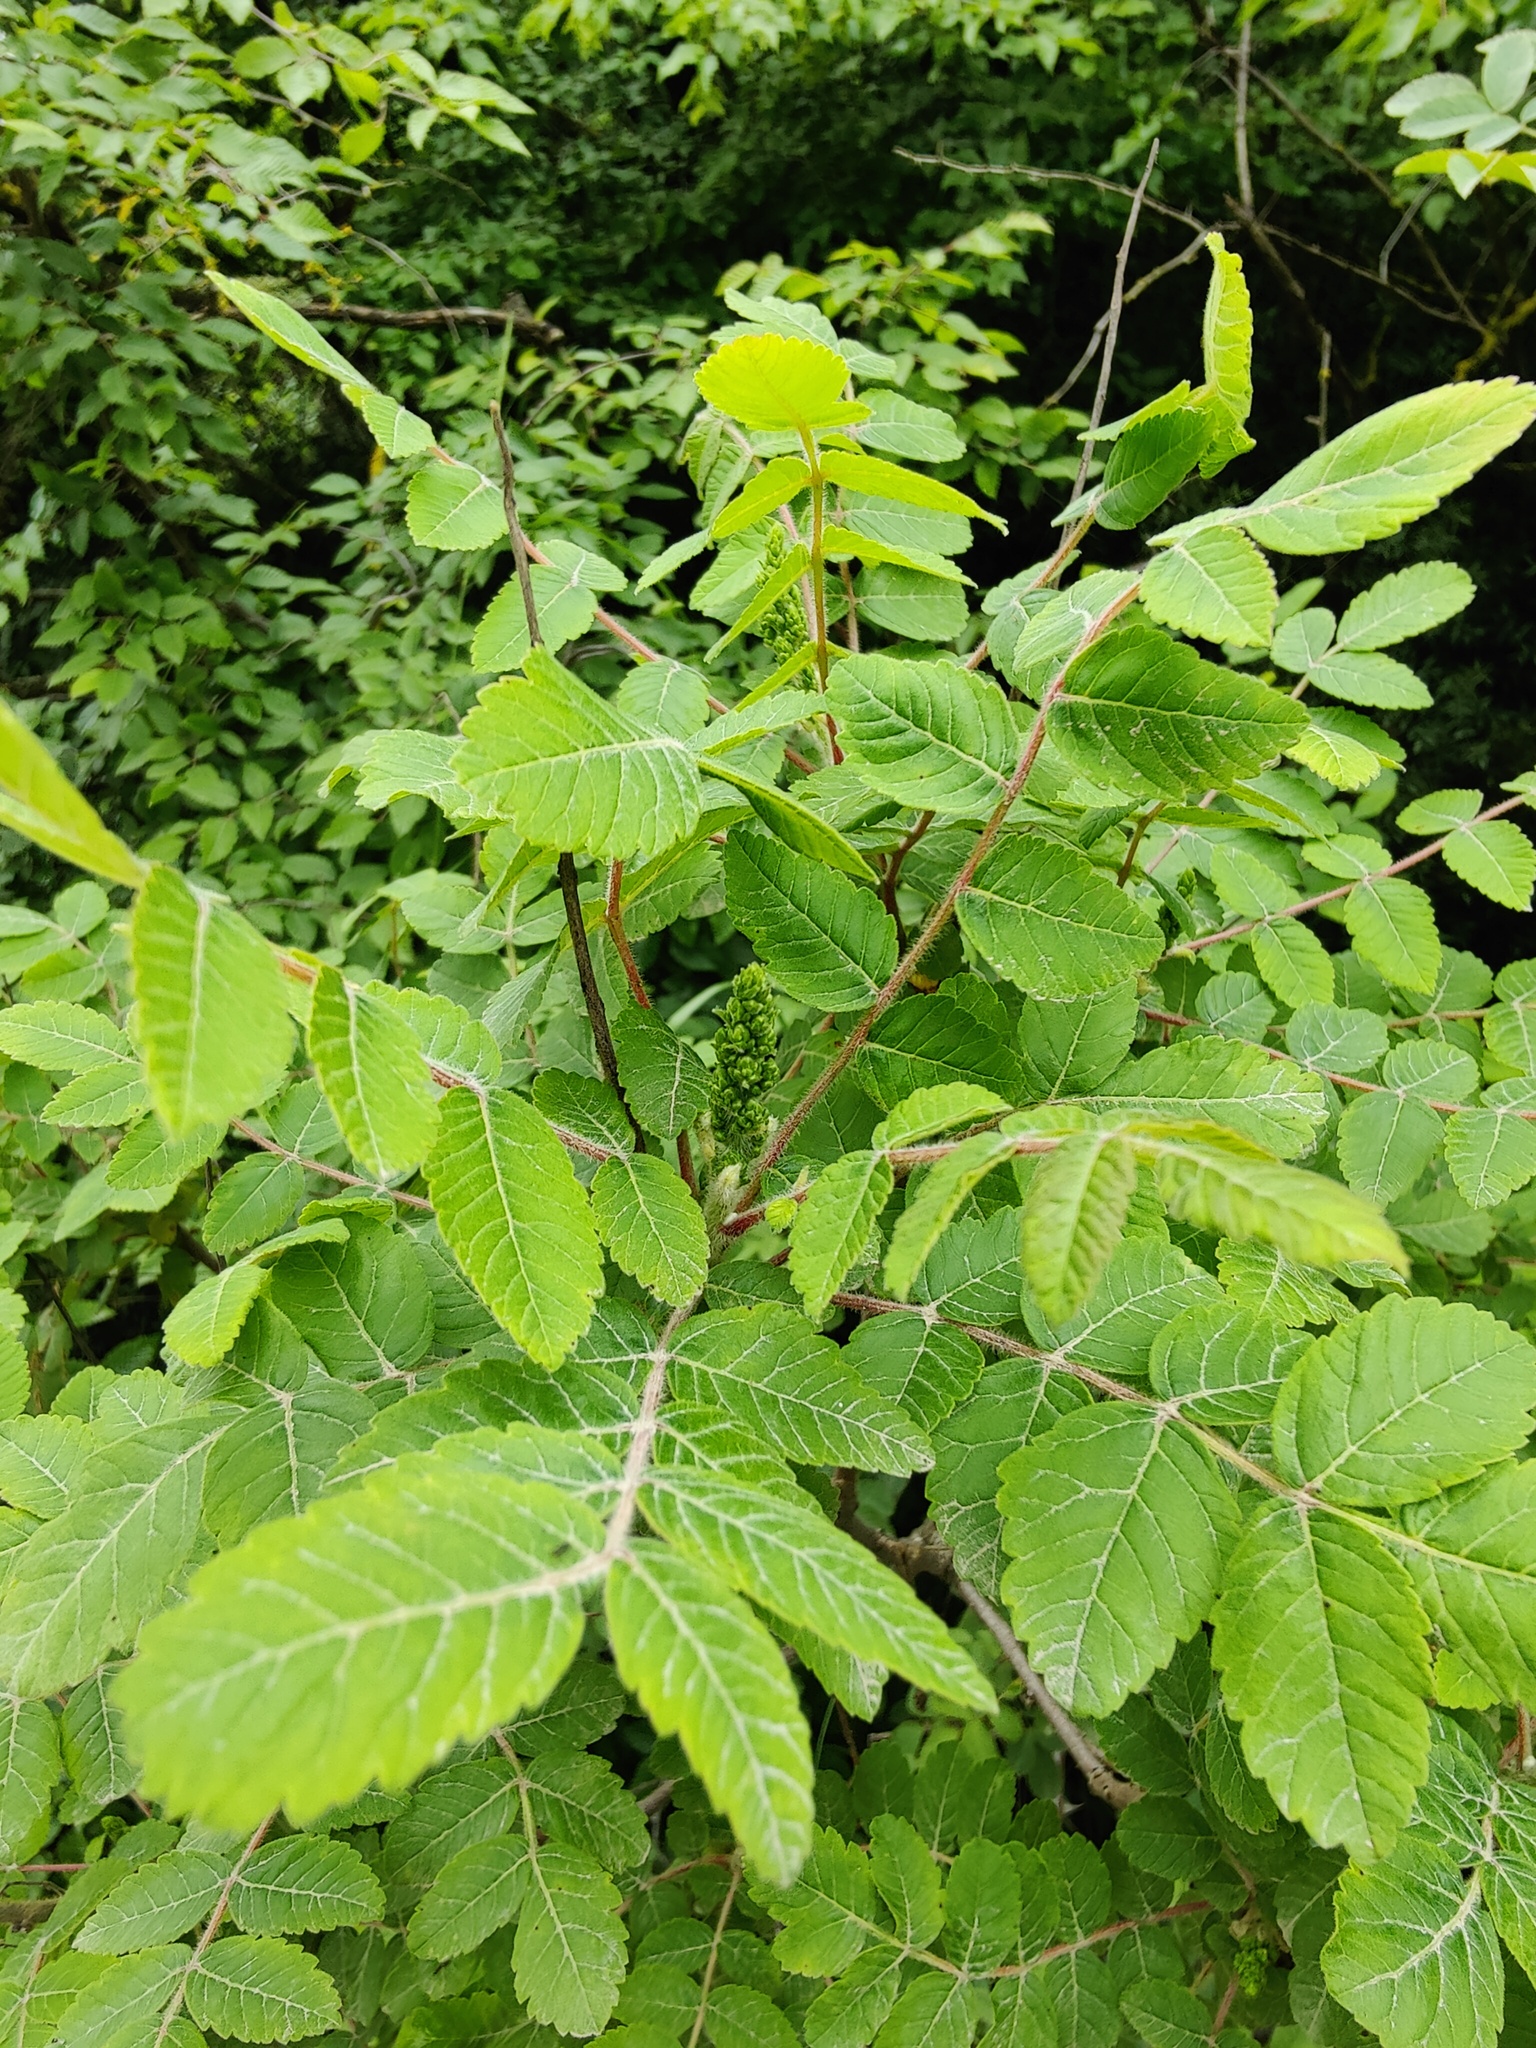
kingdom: Plantae
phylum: Tracheophyta
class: Magnoliopsida
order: Sapindales
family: Anacardiaceae
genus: Rhus
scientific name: Rhus coriaria
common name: Tanner's sumach
